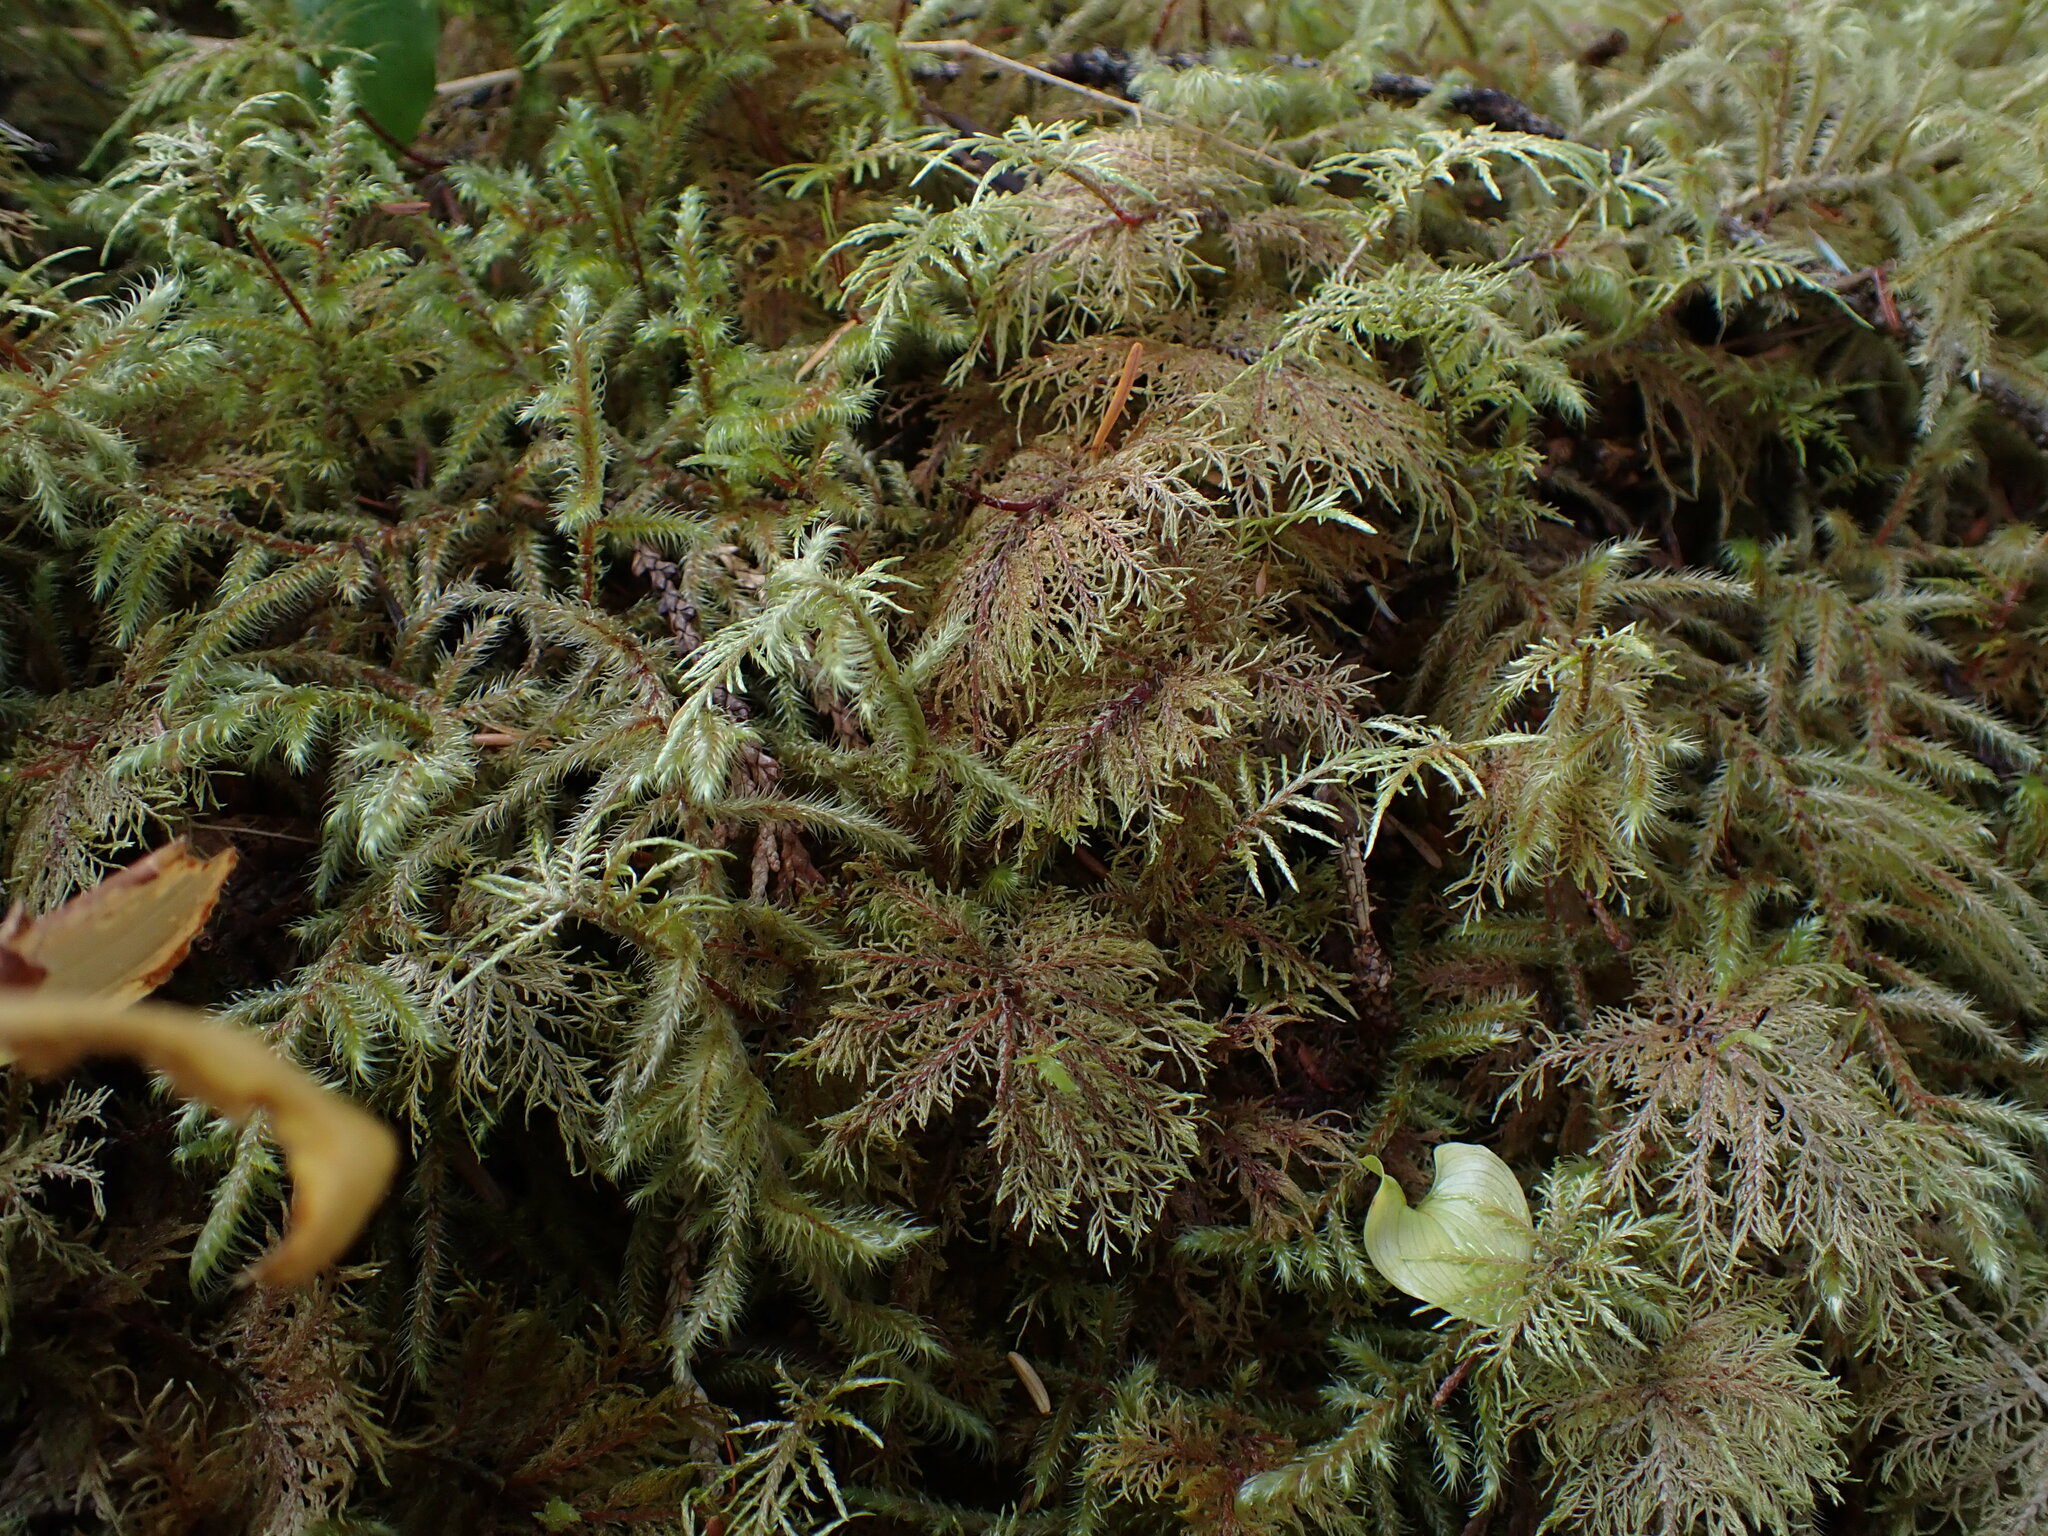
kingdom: Plantae
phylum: Bryophyta
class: Bryopsida
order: Hypnales
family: Hylocomiaceae
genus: Hylocomium
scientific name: Hylocomium splendens
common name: Stairstep moss
